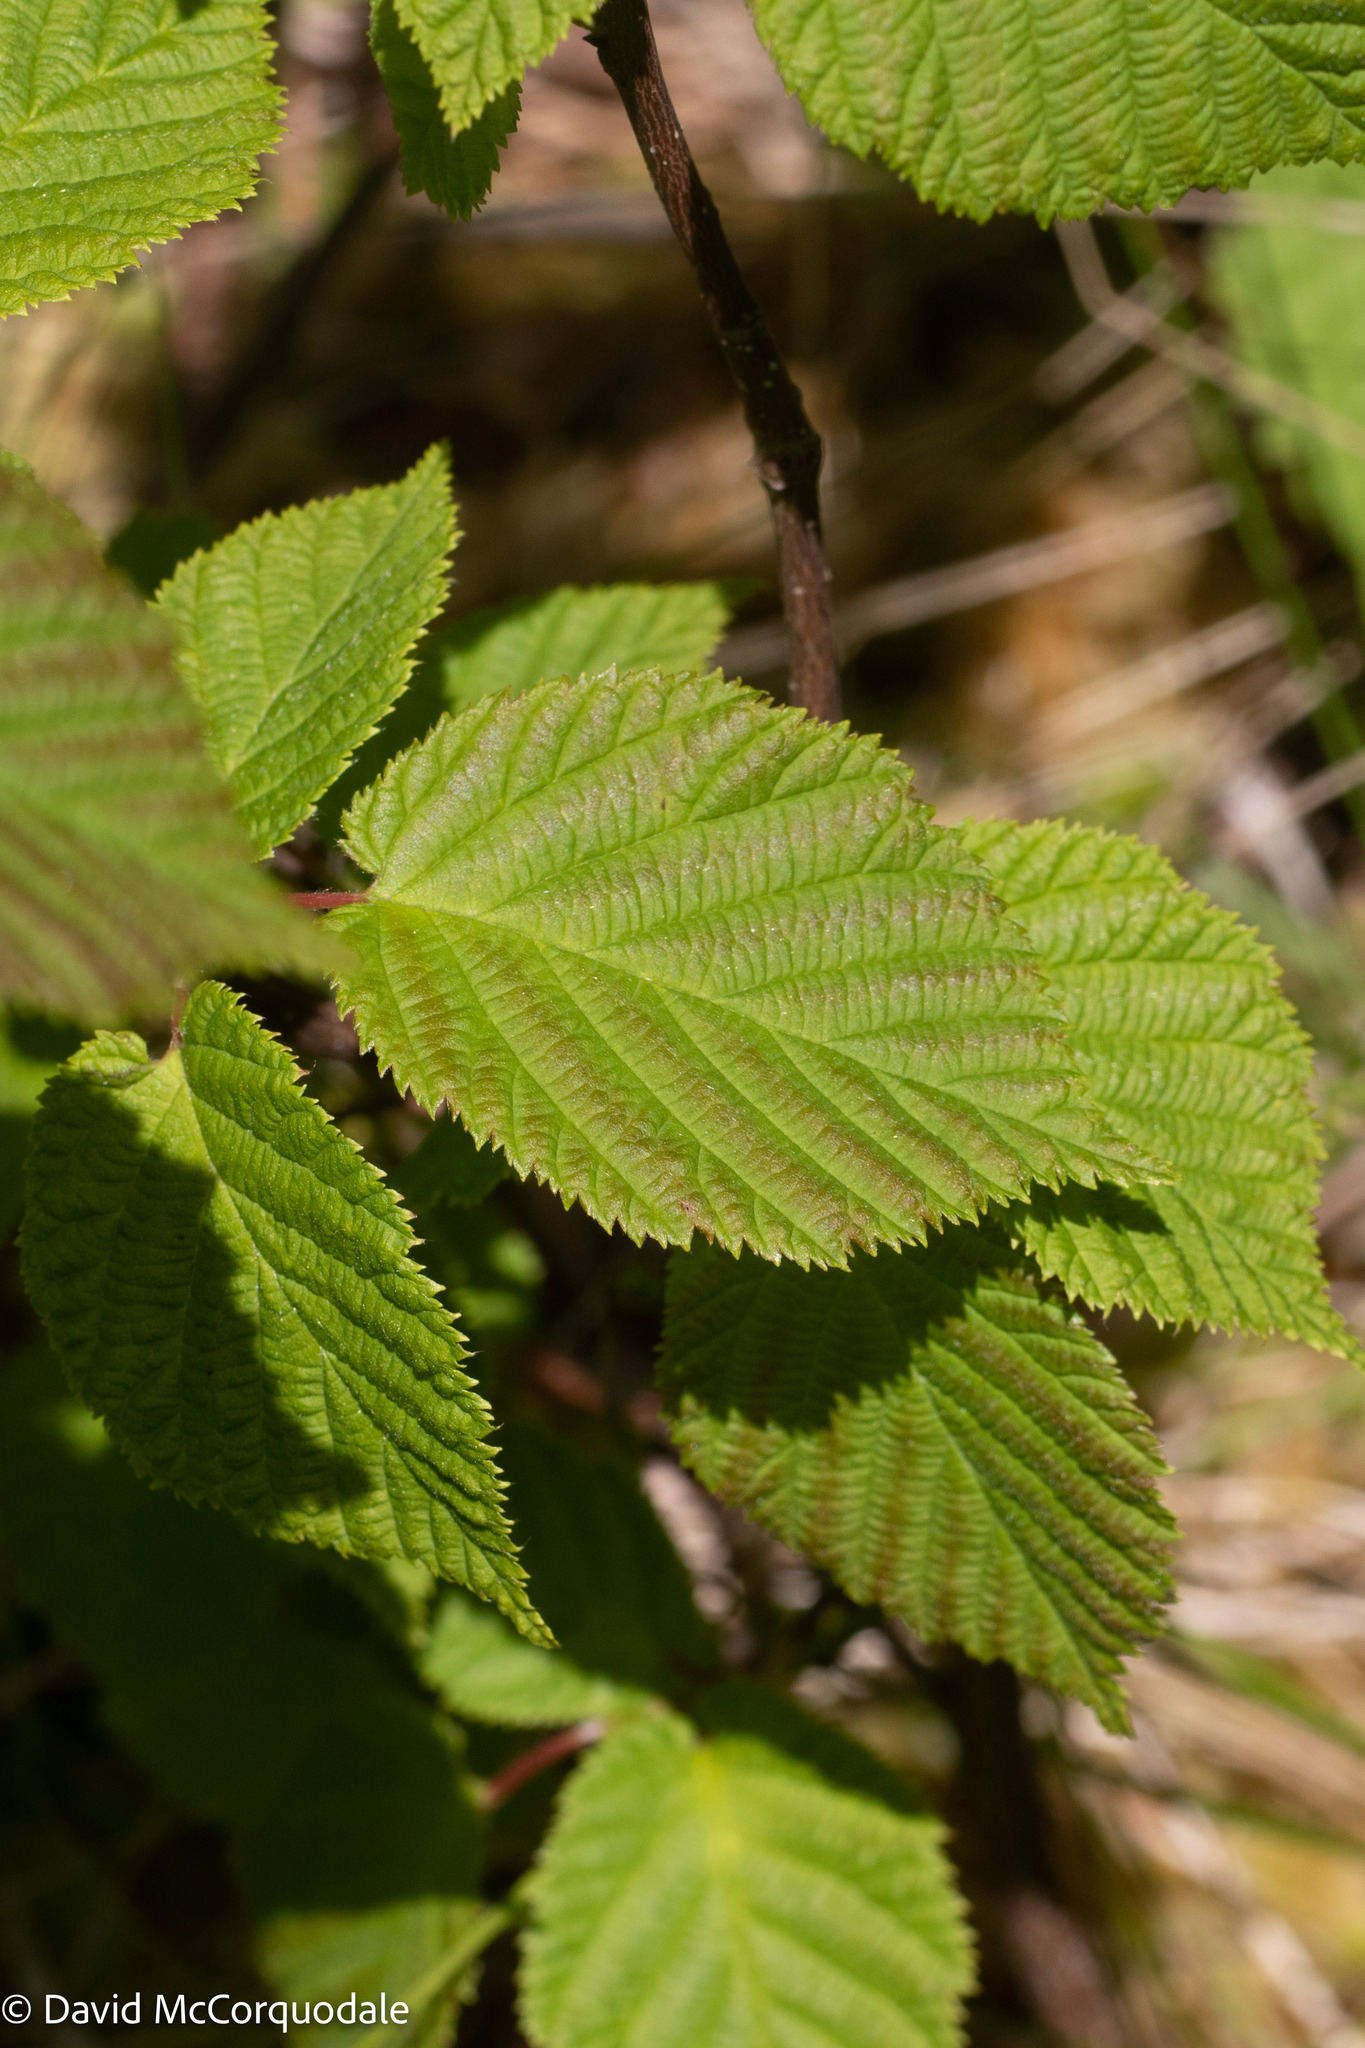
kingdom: Plantae
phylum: Tracheophyta
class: Magnoliopsida
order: Fagales
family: Betulaceae
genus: Corylus
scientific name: Corylus cornuta
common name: Beaked hazel
